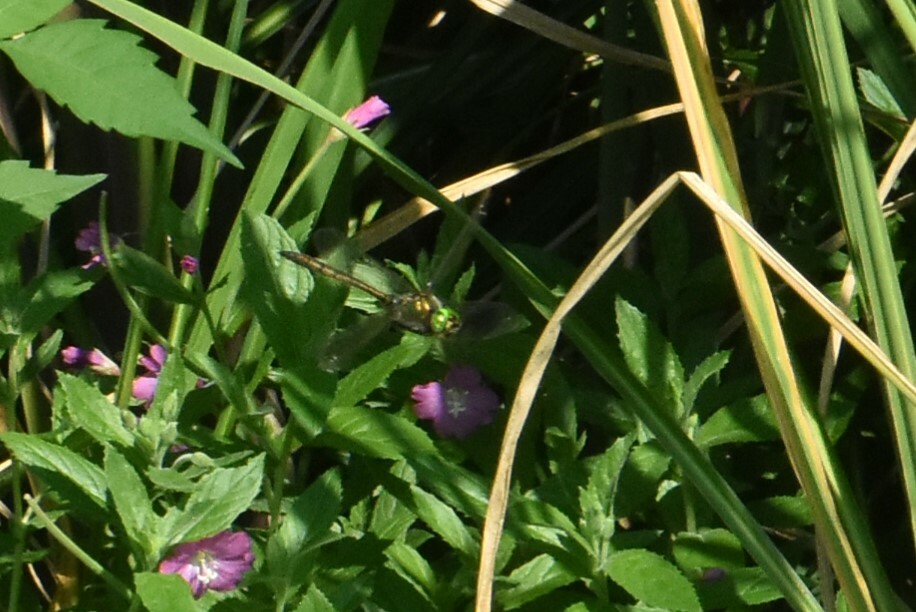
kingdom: Animalia
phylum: Arthropoda
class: Insecta
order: Odonata
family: Corduliidae
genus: Somatochlora
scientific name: Somatochlora metallica
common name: Brilliant emerald
